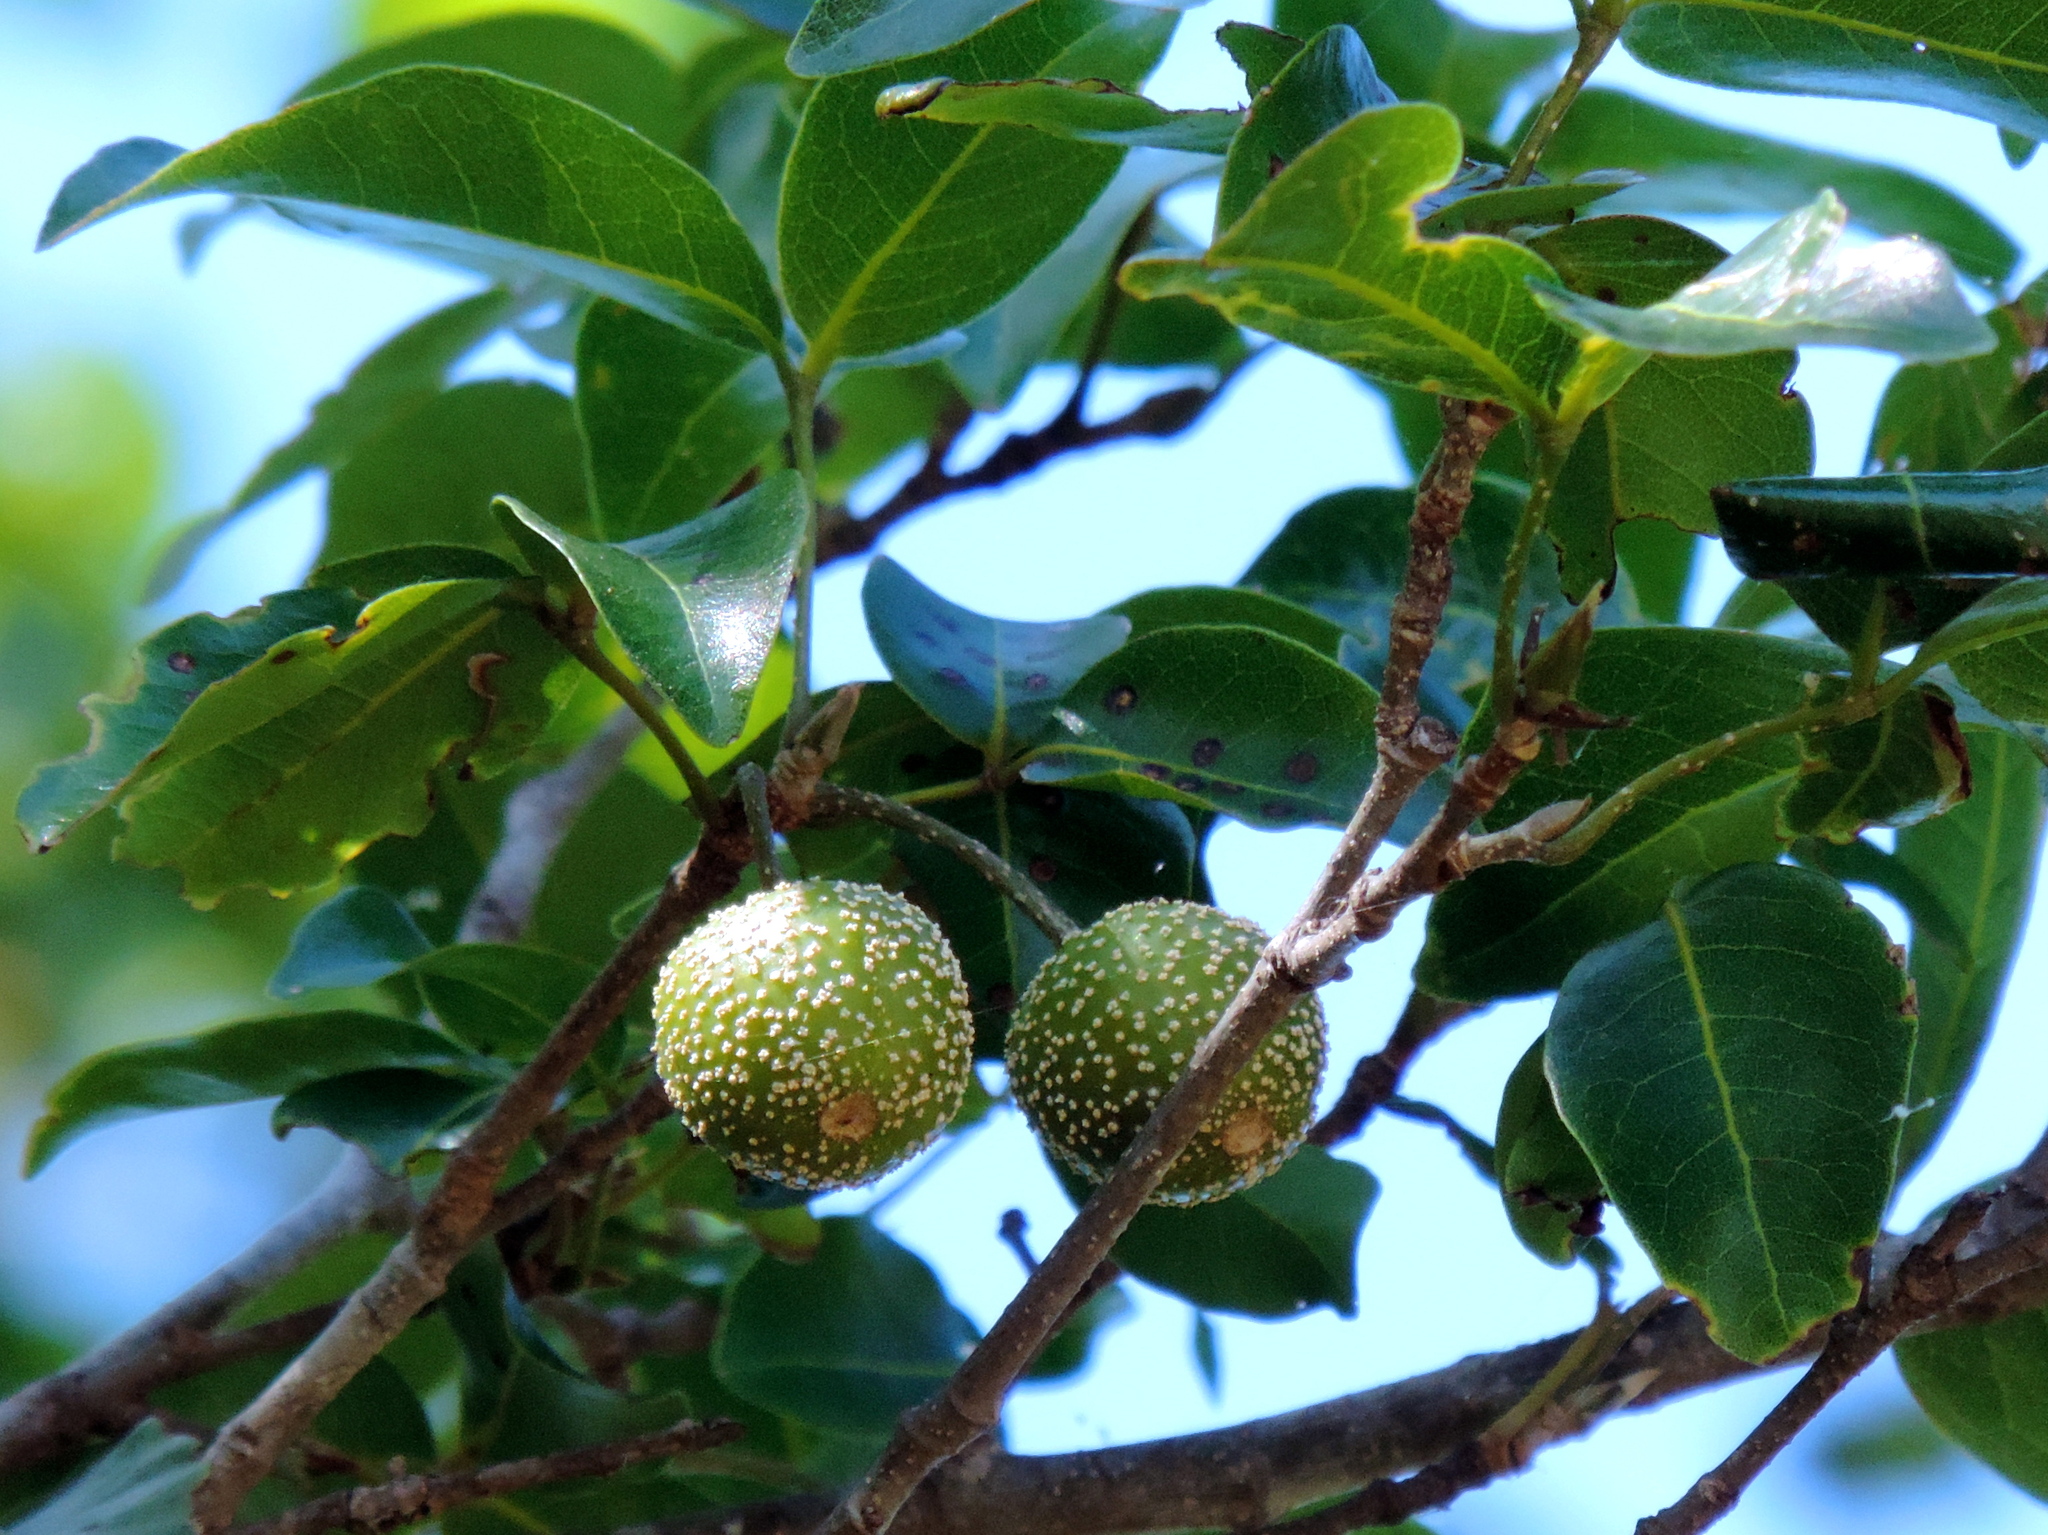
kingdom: Plantae
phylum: Tracheophyta
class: Magnoliopsida
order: Malpighiales
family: Picrodendraceae
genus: Piranhea
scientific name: Piranhea mexicana
